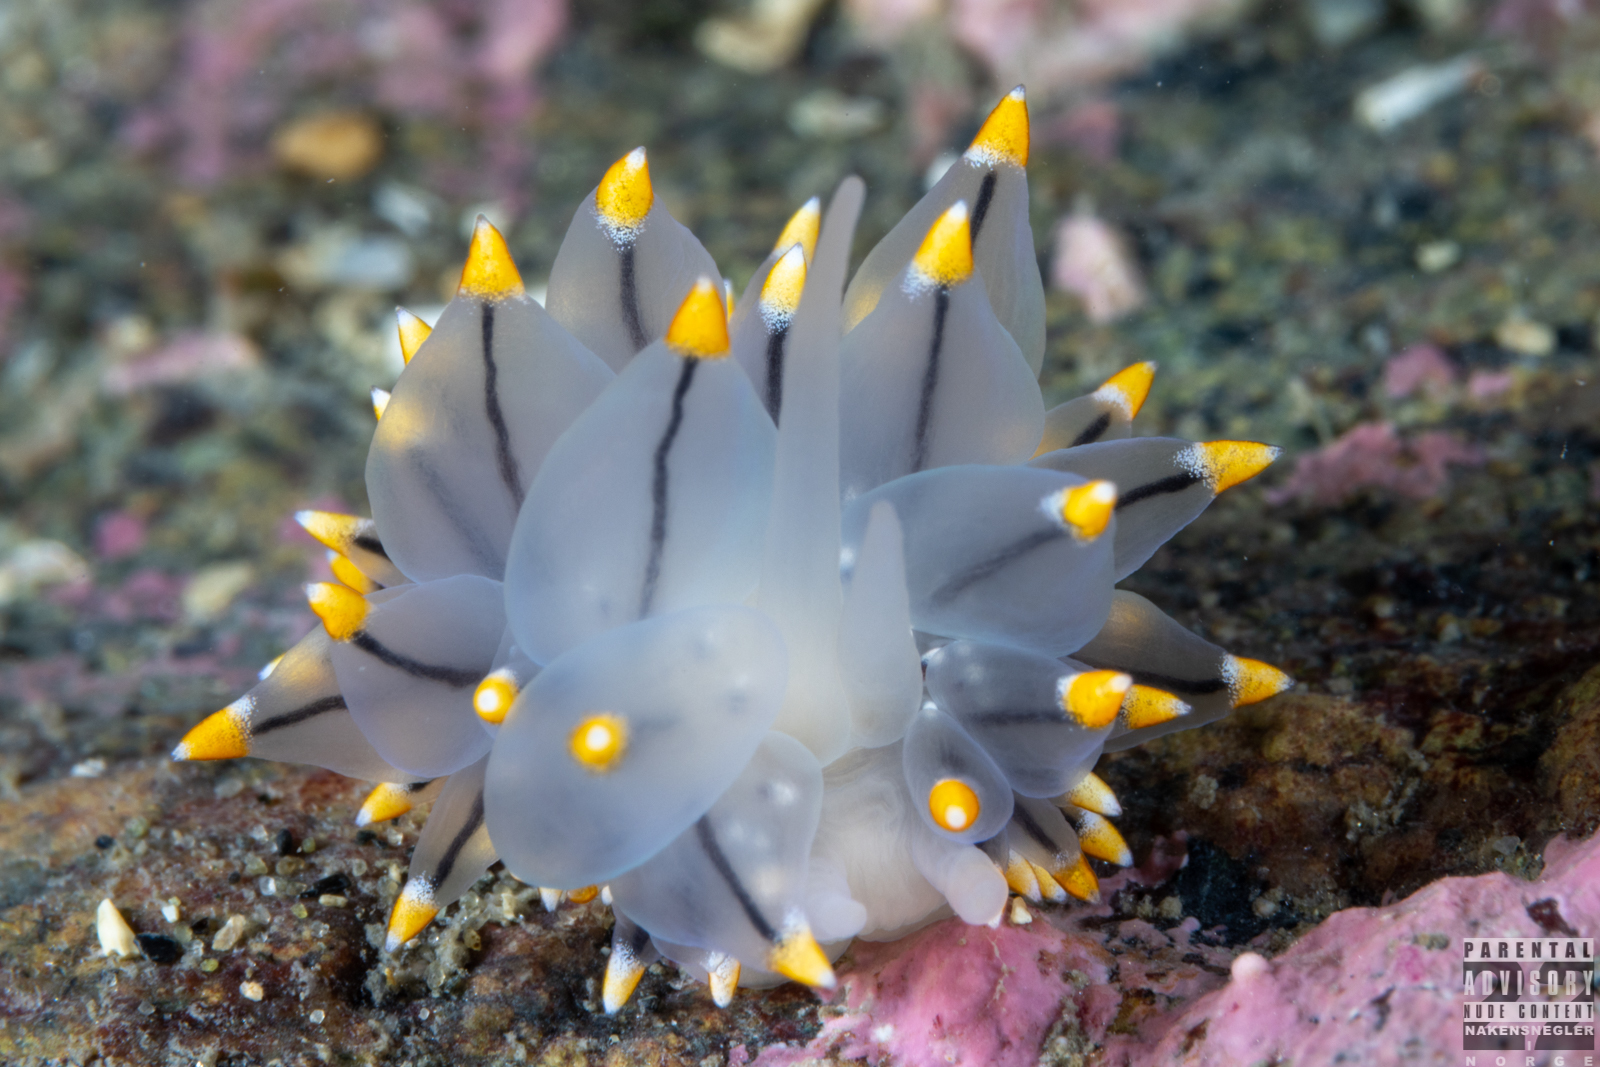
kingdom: Animalia
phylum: Mollusca
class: Gastropoda
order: Nudibranchia
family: Eubranchidae
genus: Eubranchus
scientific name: Eubranchus tricolor
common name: Painted balloon aeolis
